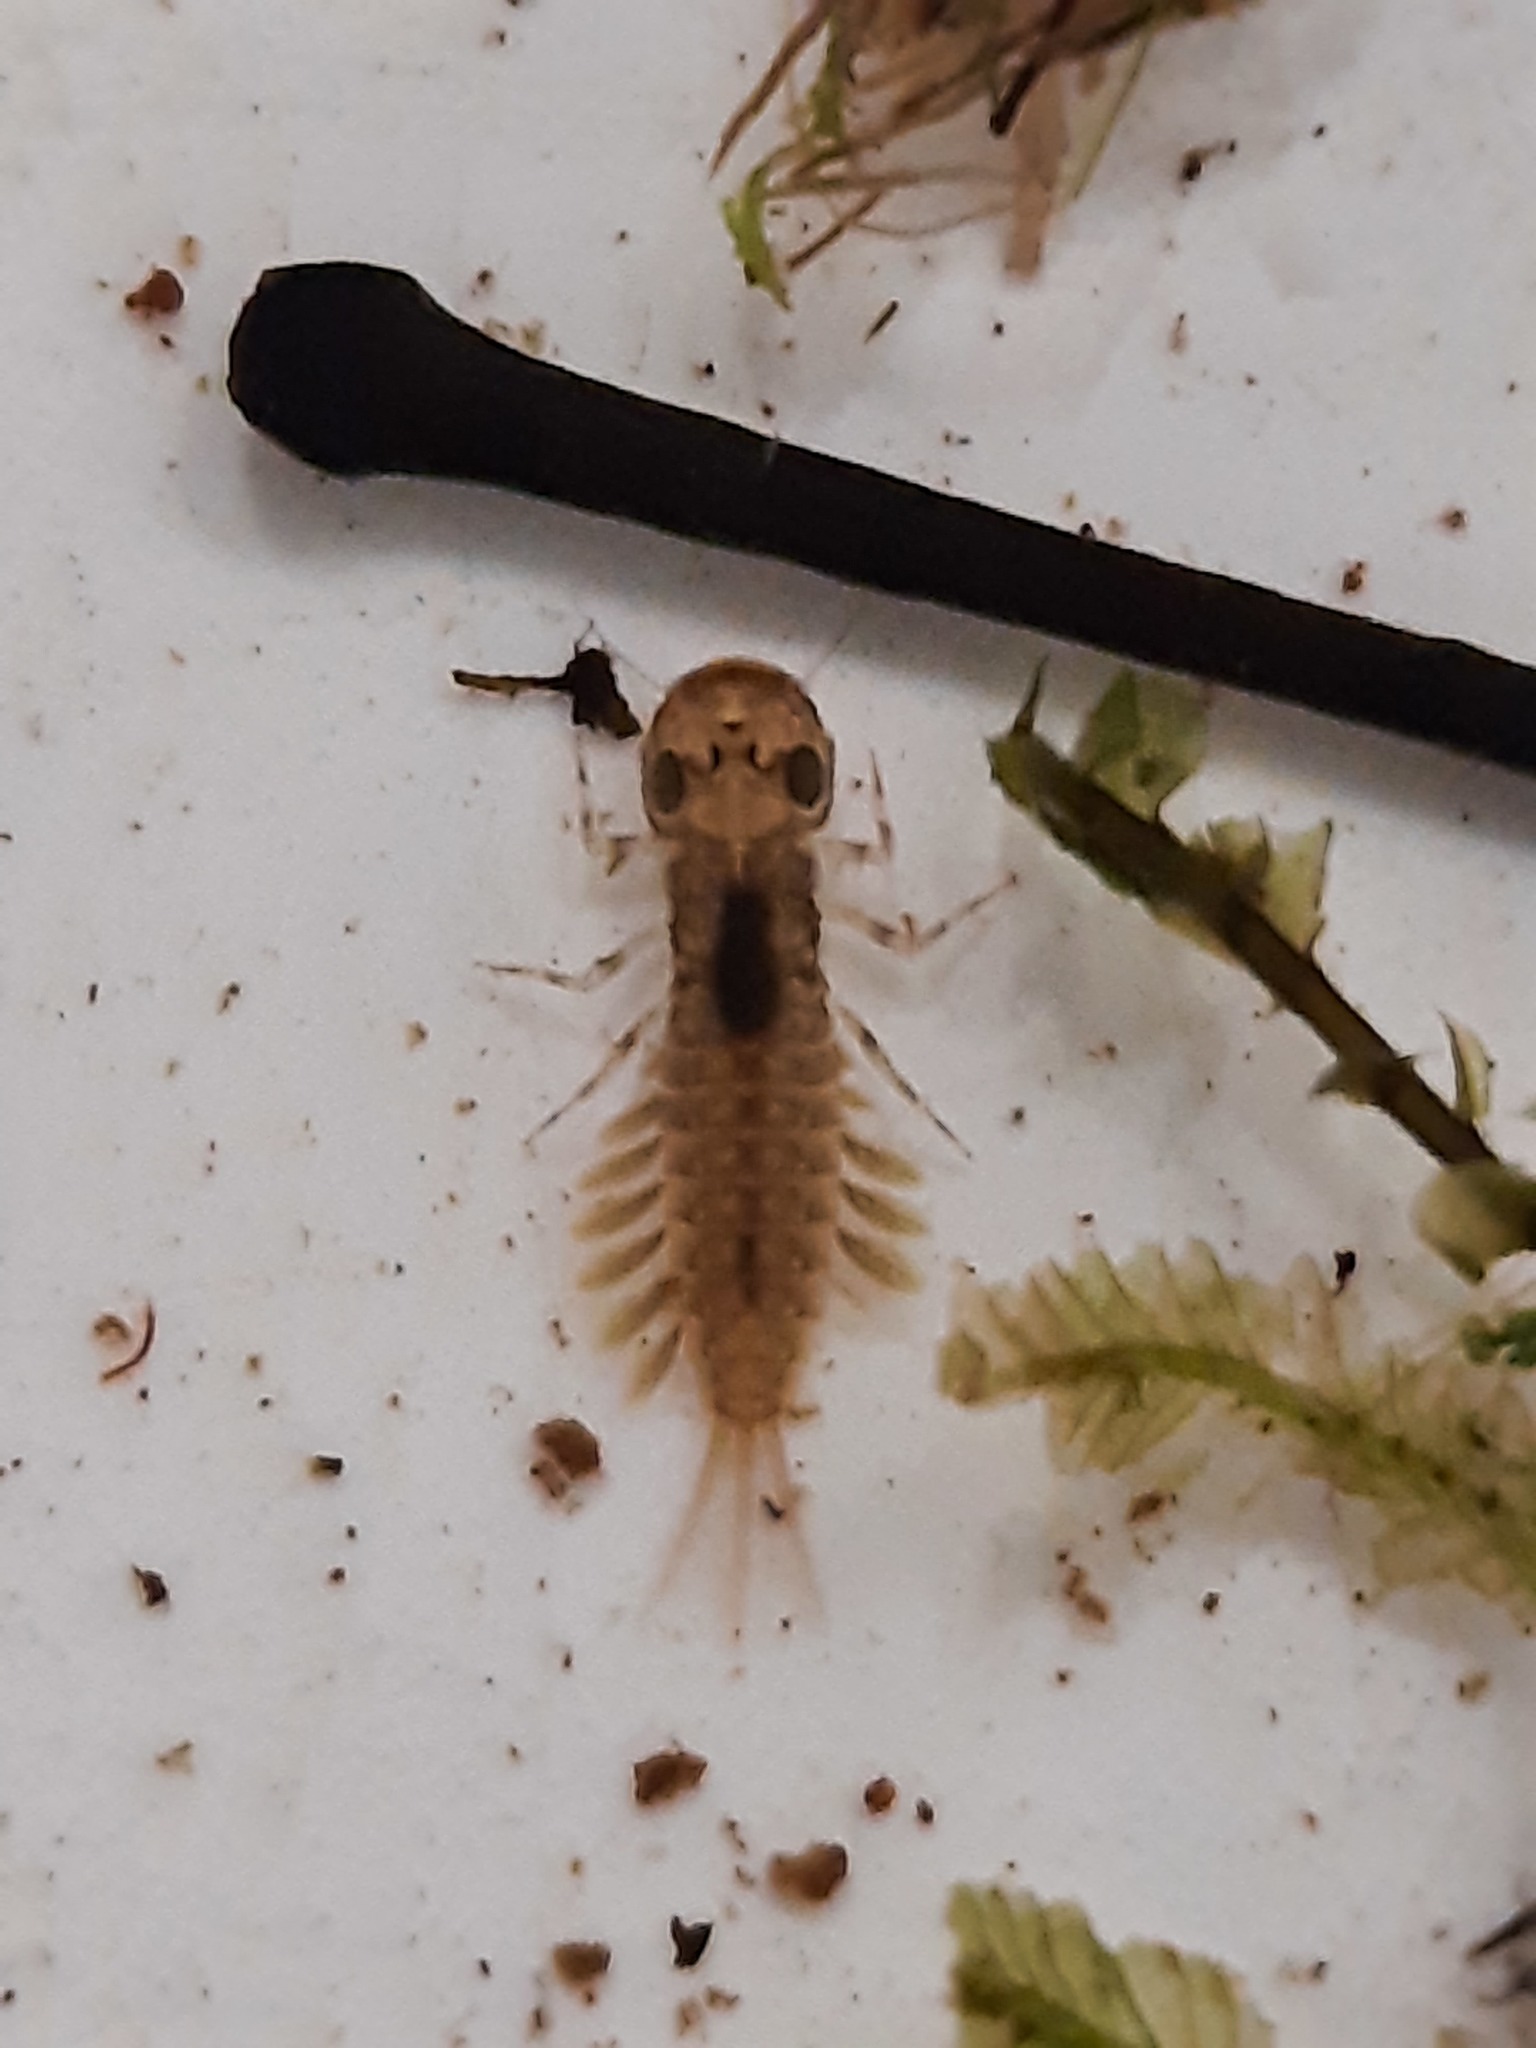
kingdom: Animalia
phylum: Arthropoda
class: Insecta
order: Ephemeroptera
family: Ameletopsidae
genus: Ameletopsis
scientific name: Ameletopsis perscitus
